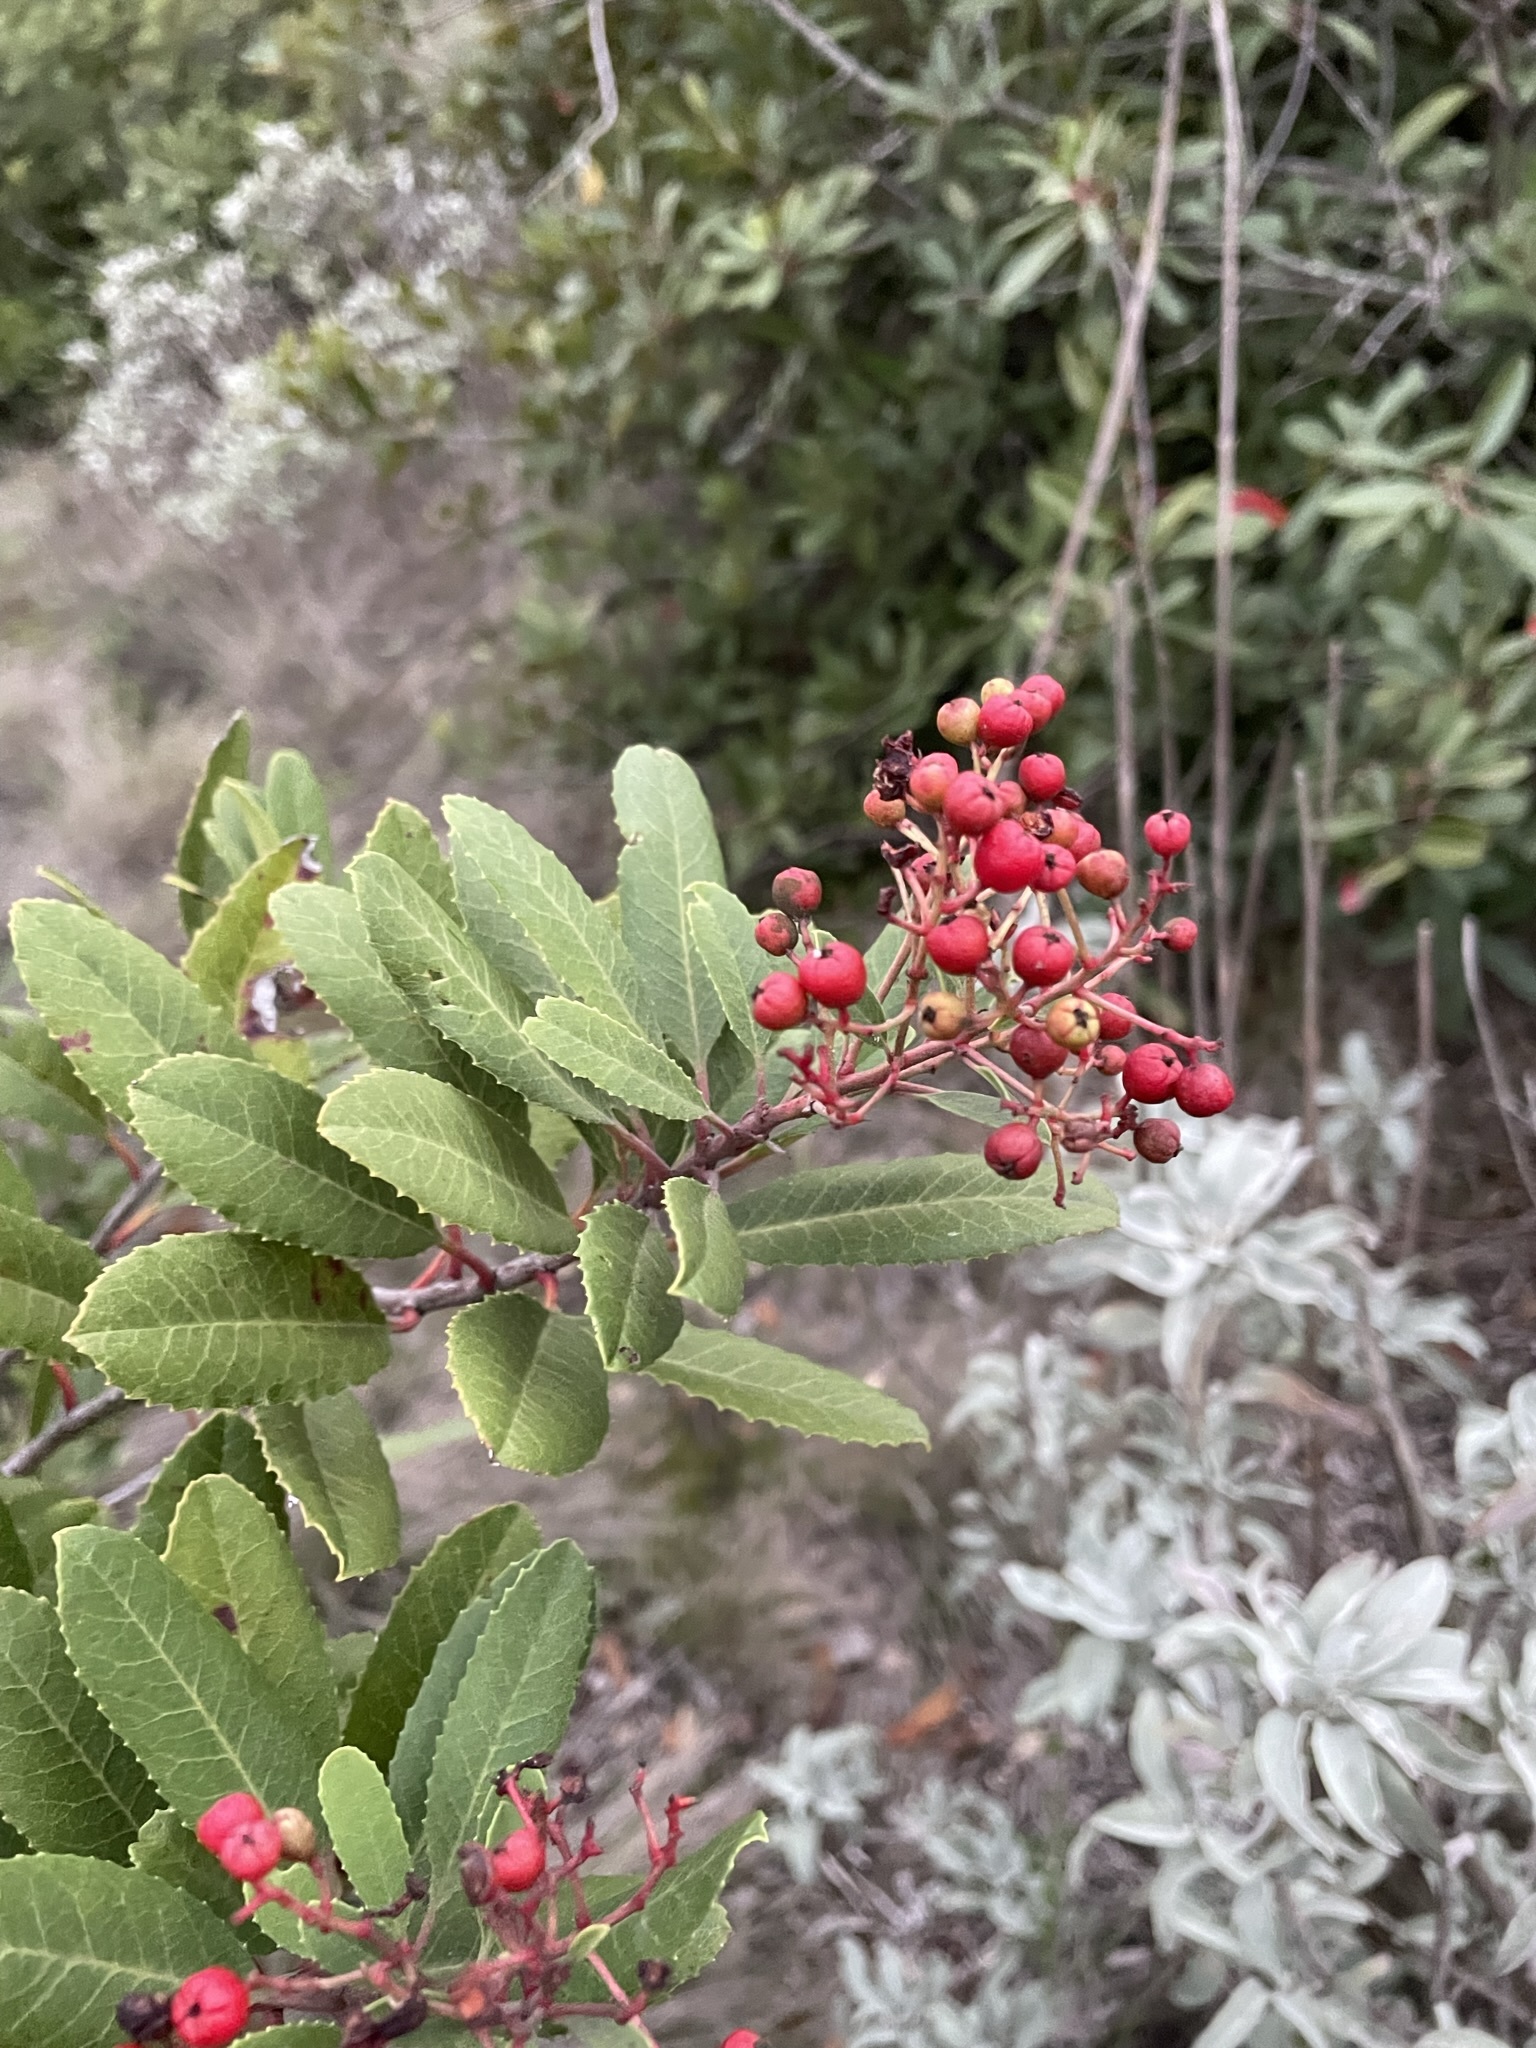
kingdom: Plantae
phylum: Tracheophyta
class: Magnoliopsida
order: Rosales
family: Rosaceae
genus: Heteromeles
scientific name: Heteromeles arbutifolia
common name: California-holly
